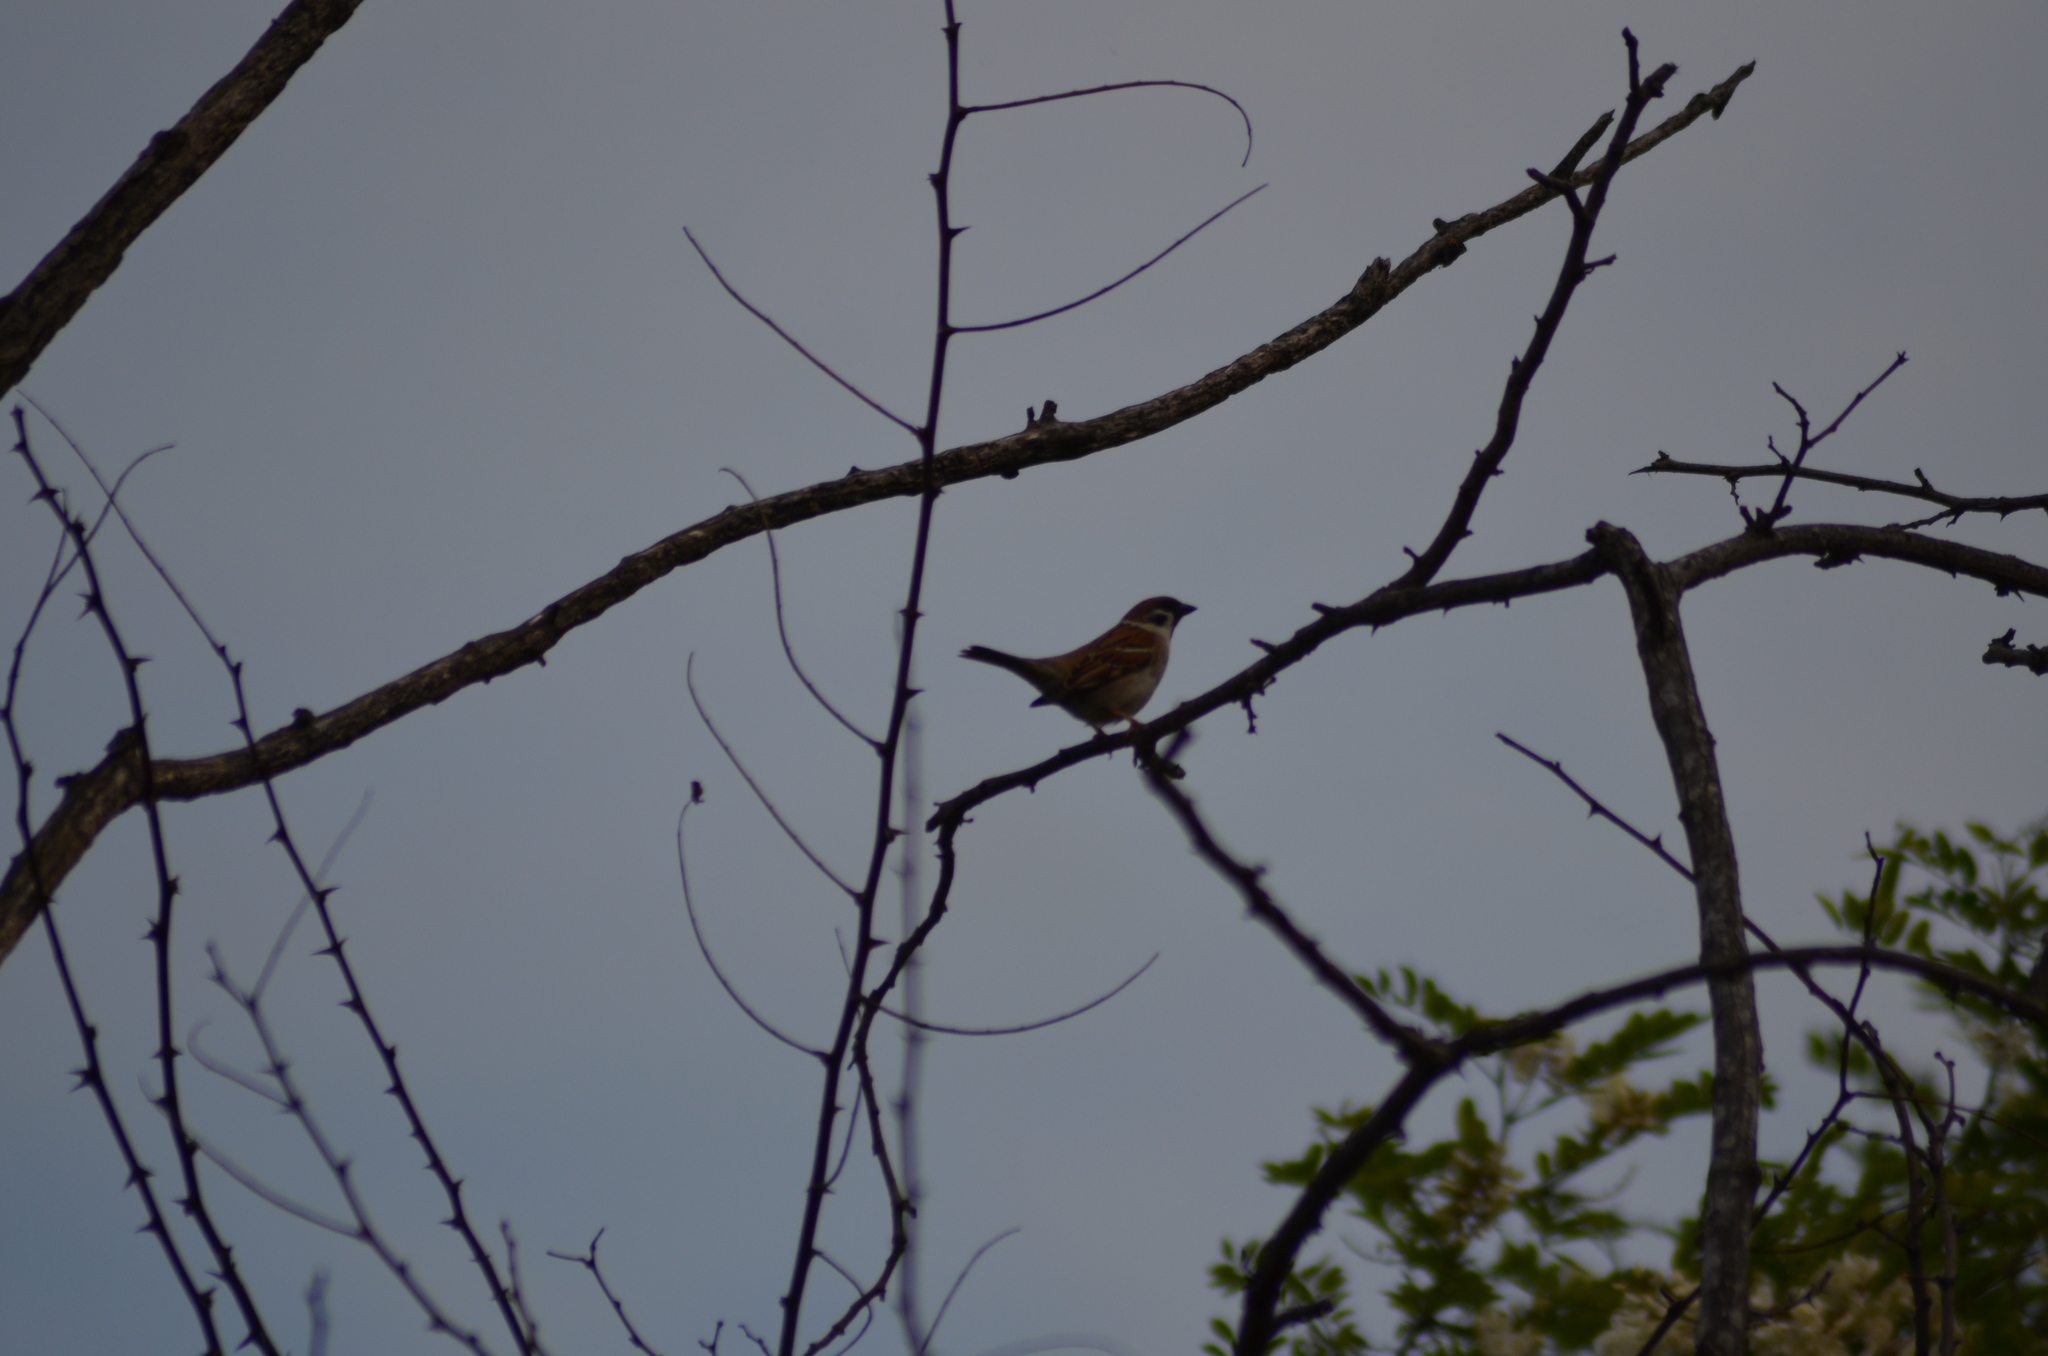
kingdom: Animalia
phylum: Chordata
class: Aves
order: Passeriformes
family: Passeridae
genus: Passer
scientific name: Passer montanus
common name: Eurasian tree sparrow
